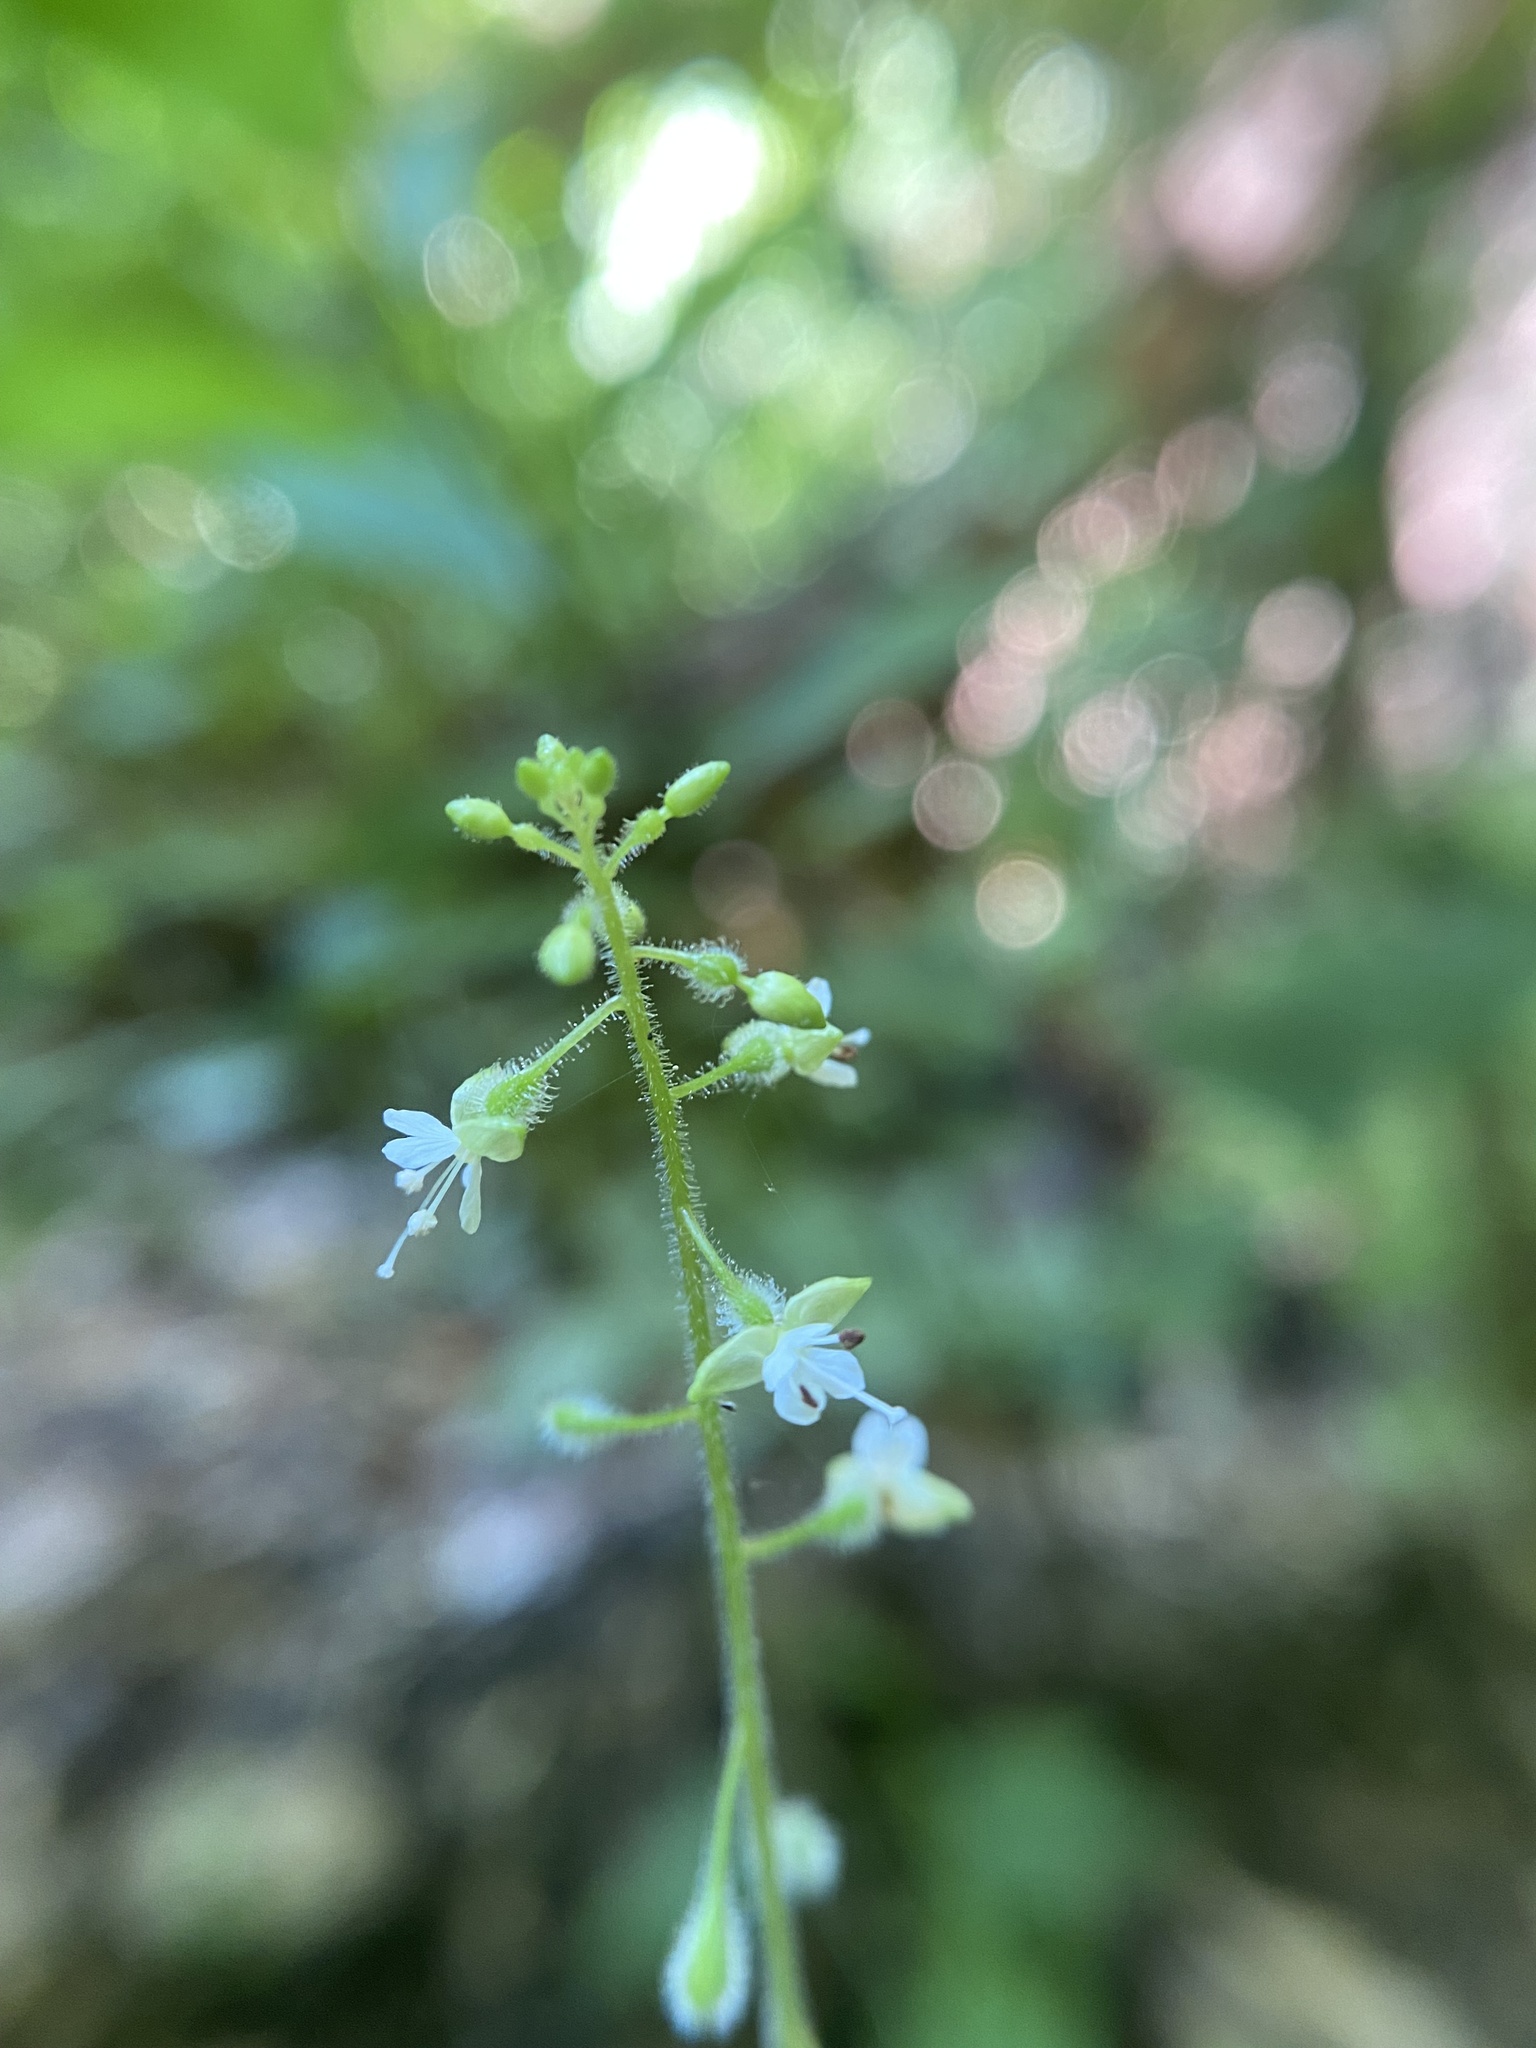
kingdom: Plantae
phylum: Tracheophyta
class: Magnoliopsida
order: Myrtales
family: Onagraceae
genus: Circaea
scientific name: Circaea canadensis
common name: Broad-leaved enchanter's nightshade
